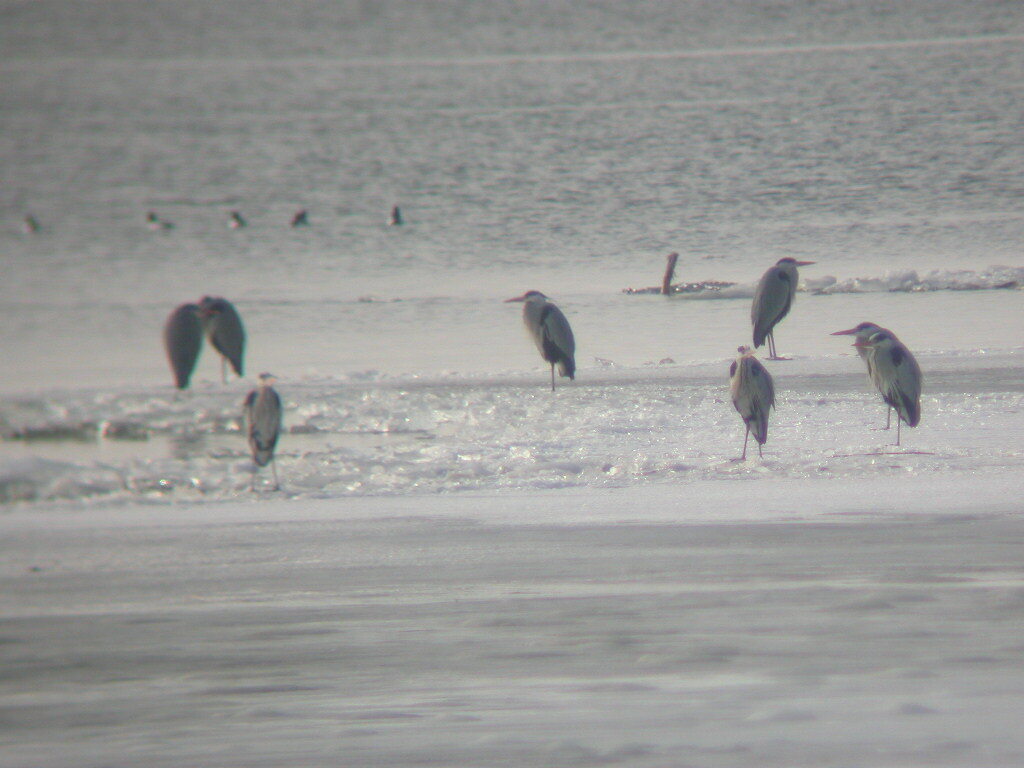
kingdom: Animalia
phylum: Chordata
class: Aves
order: Pelecaniformes
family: Ardeidae
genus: Ardea
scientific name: Ardea cinerea
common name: Grey heron
